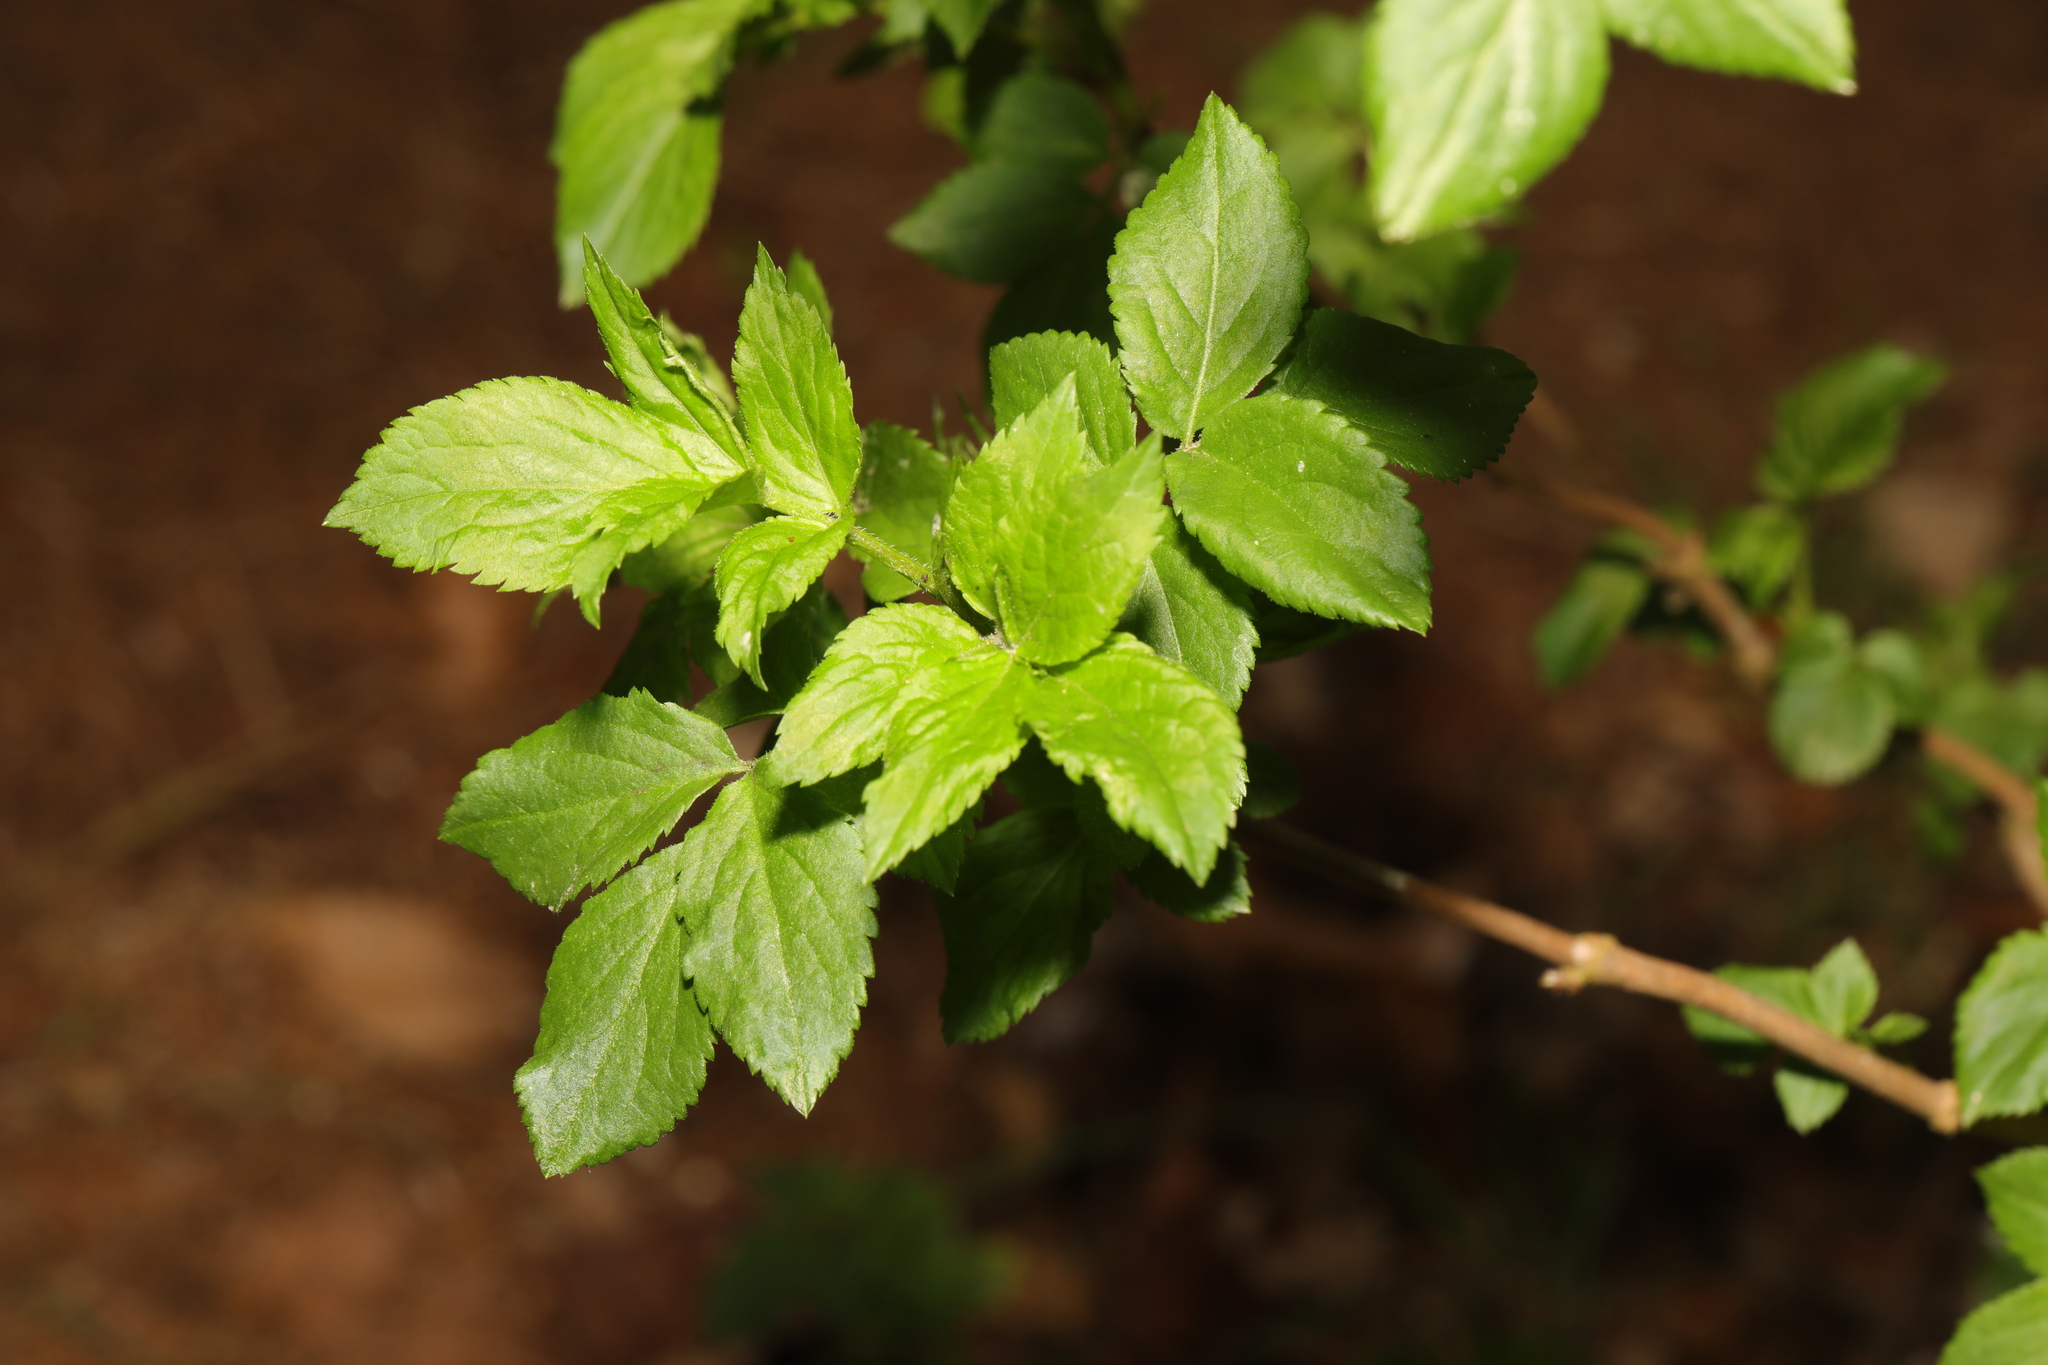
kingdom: Plantae
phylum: Tracheophyta
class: Magnoliopsida
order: Dipsacales
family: Viburnaceae
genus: Sambucus
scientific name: Sambucus nigra
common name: Elder
